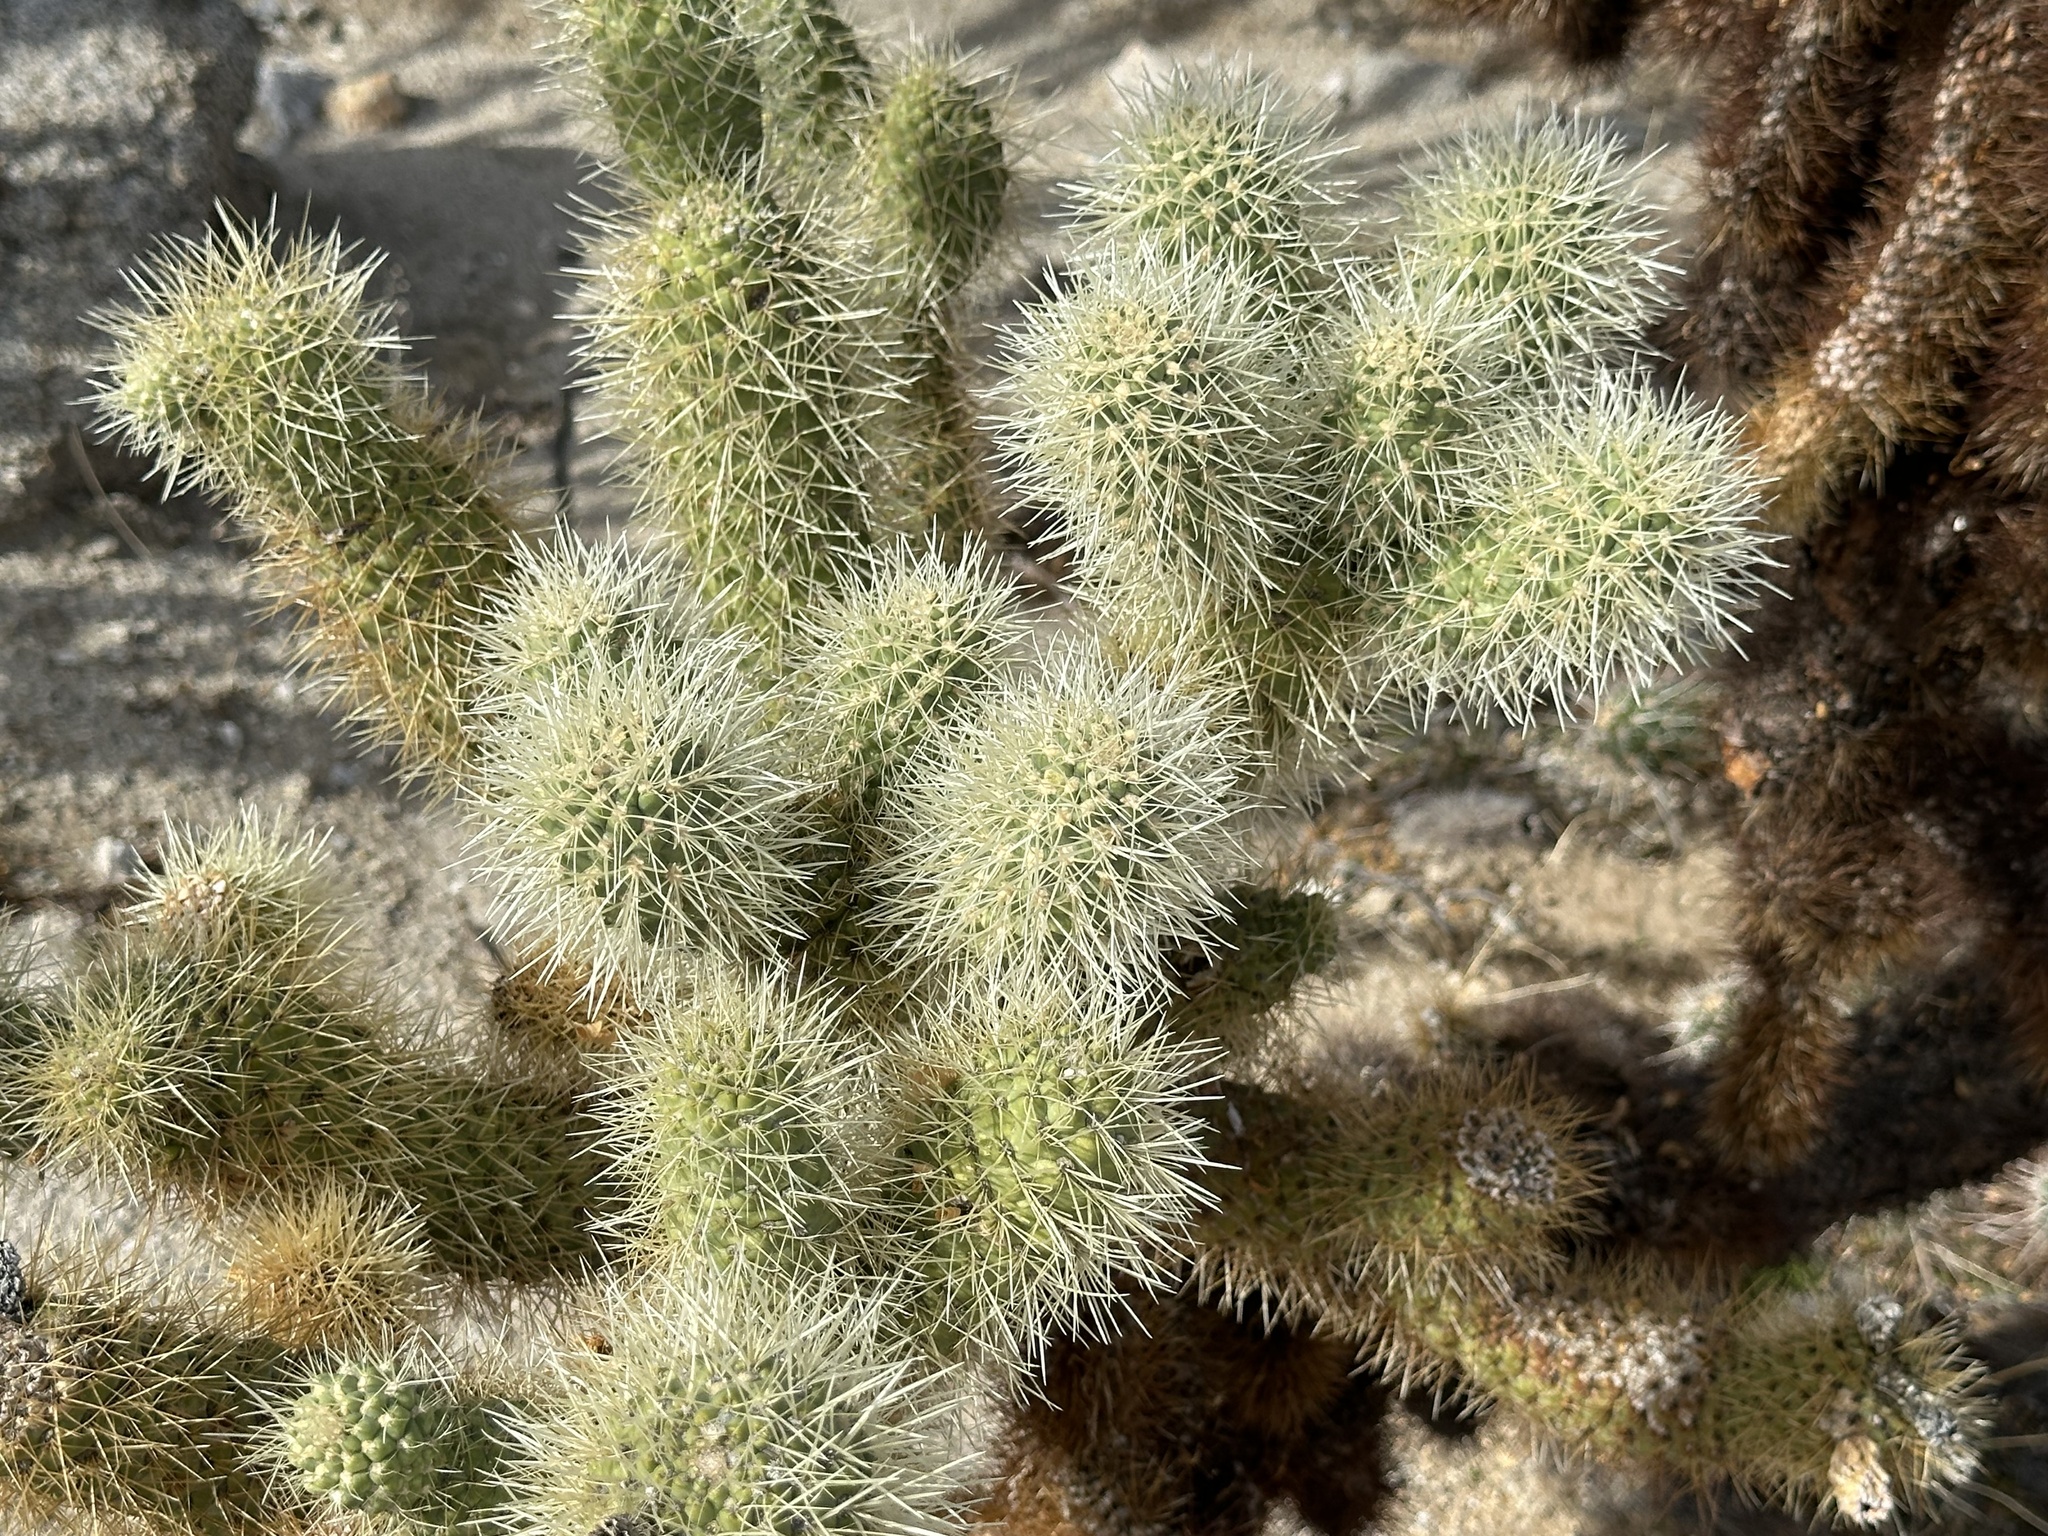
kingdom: Plantae
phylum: Tracheophyta
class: Magnoliopsida
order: Caryophyllales
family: Cactaceae
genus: Cylindropuntia
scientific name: Cylindropuntia fosbergii
